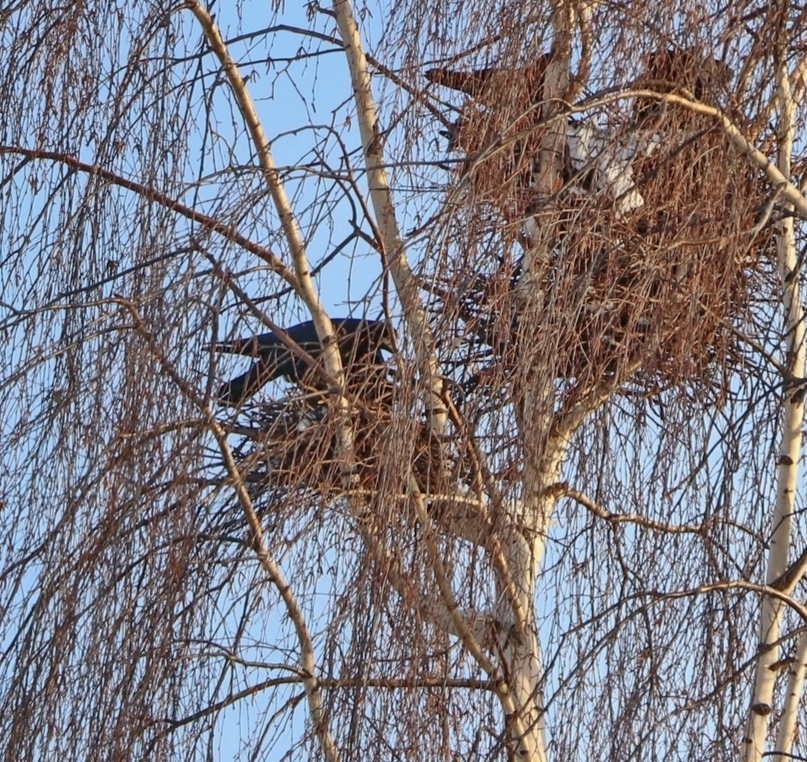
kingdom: Animalia
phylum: Chordata
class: Aves
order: Passeriformes
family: Corvidae
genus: Corvus
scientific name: Corvus frugilegus
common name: Rook
